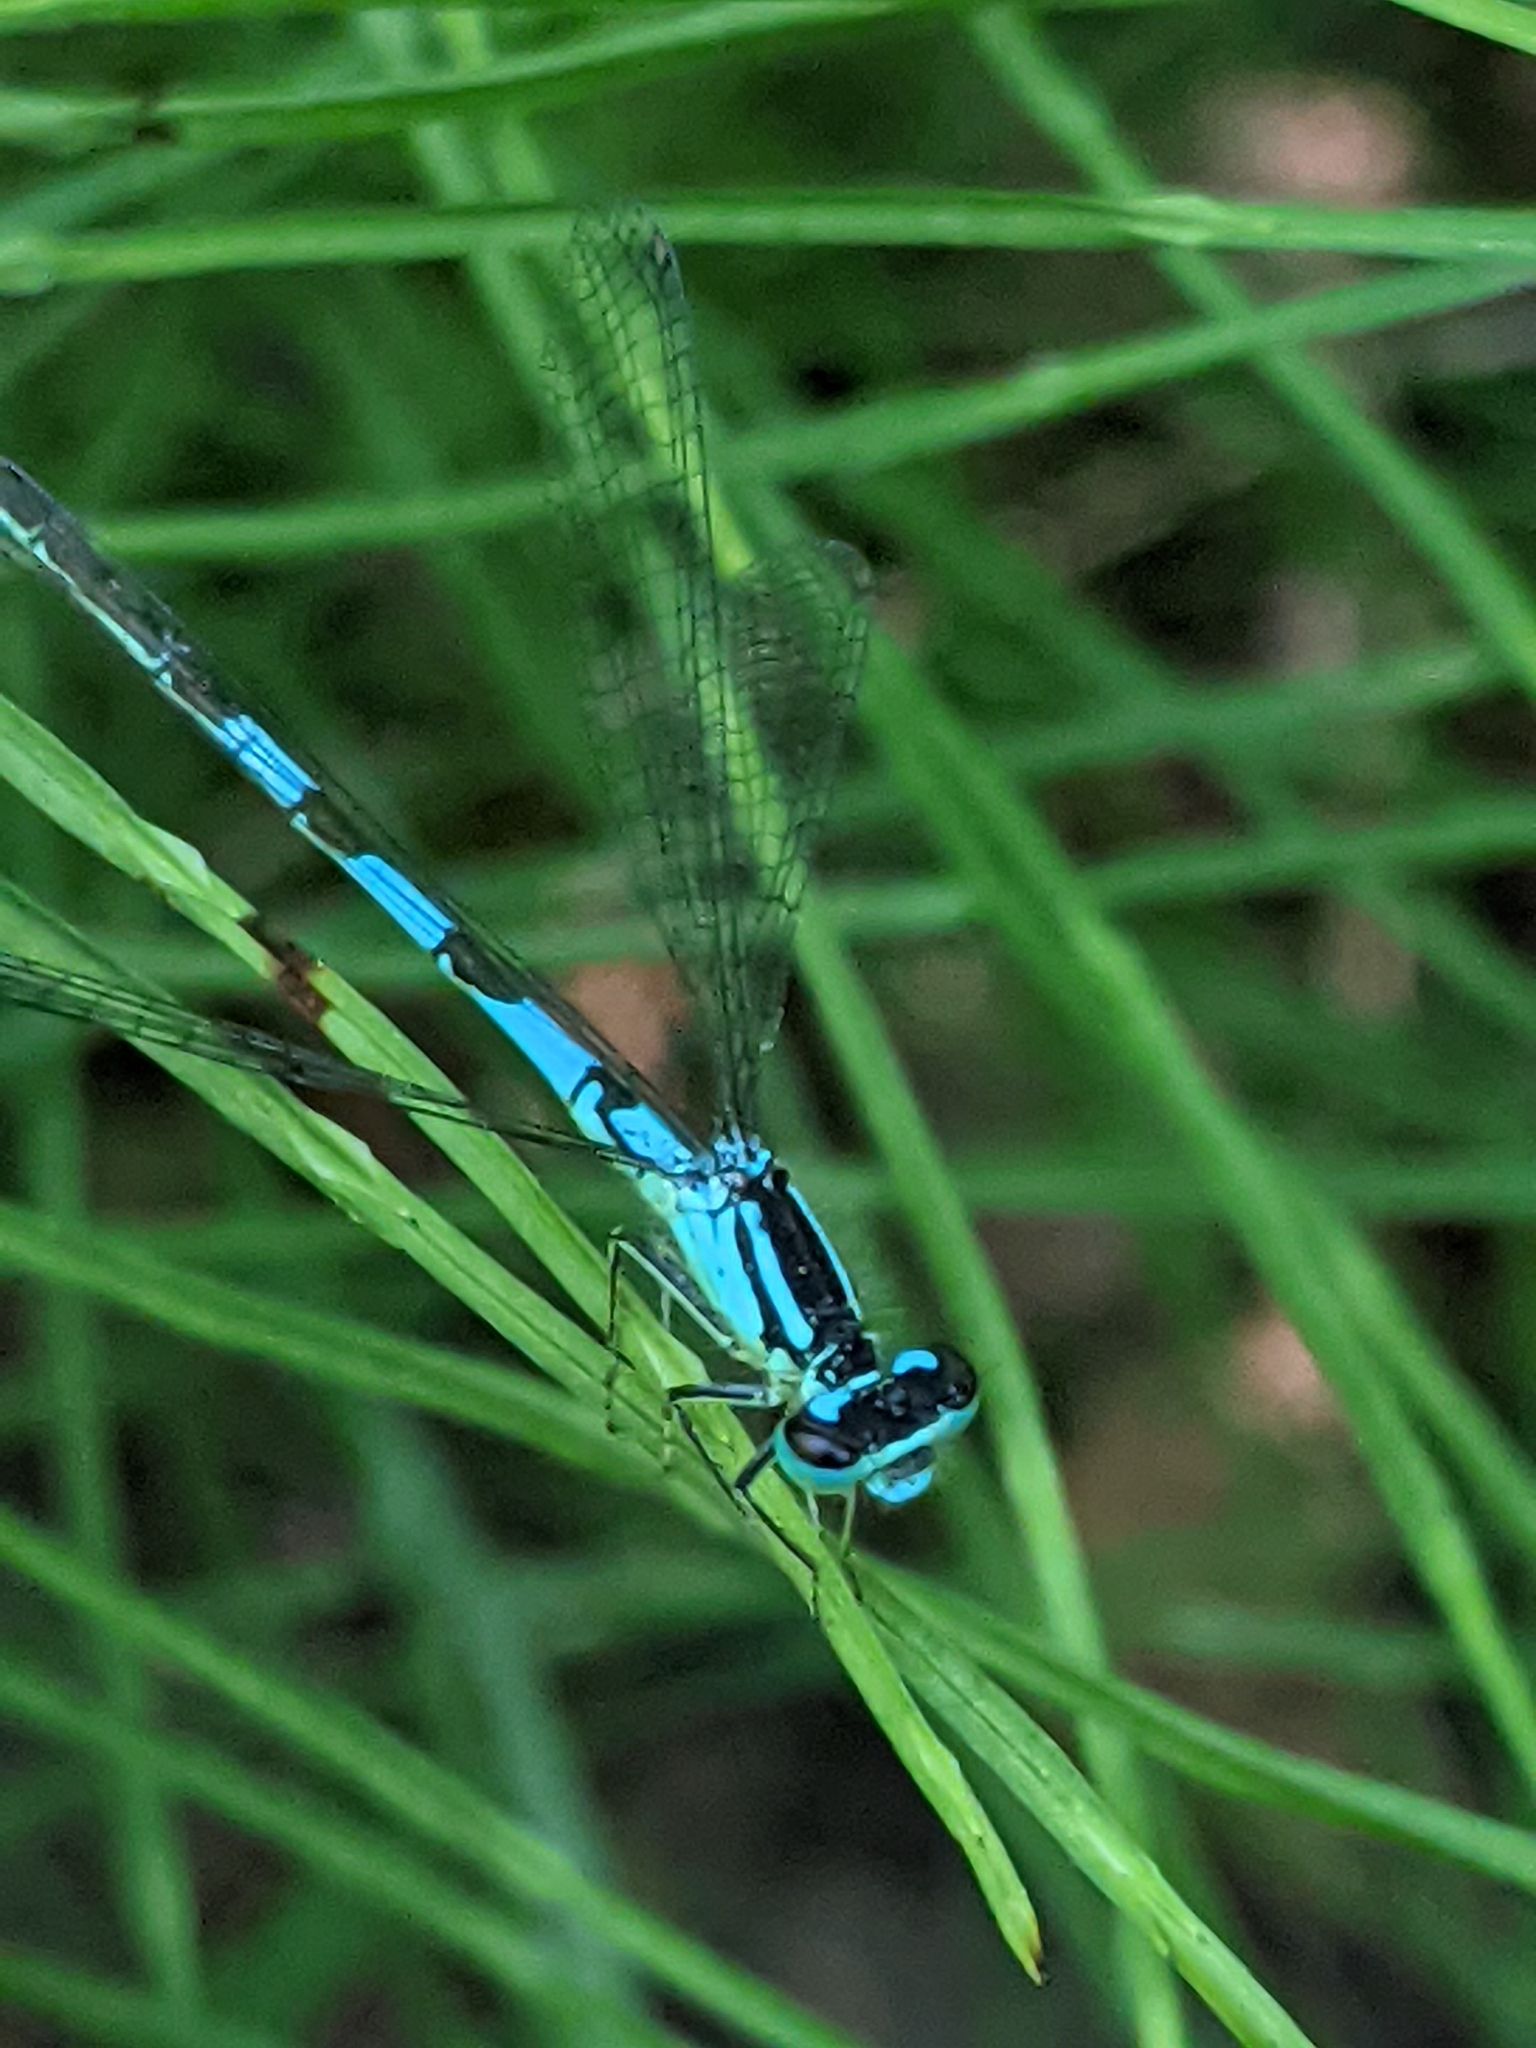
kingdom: Animalia
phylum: Arthropoda
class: Insecta
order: Odonata
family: Coenagrionidae
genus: Coenagrion
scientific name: Coenagrion resolutum
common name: Taiga bluet
